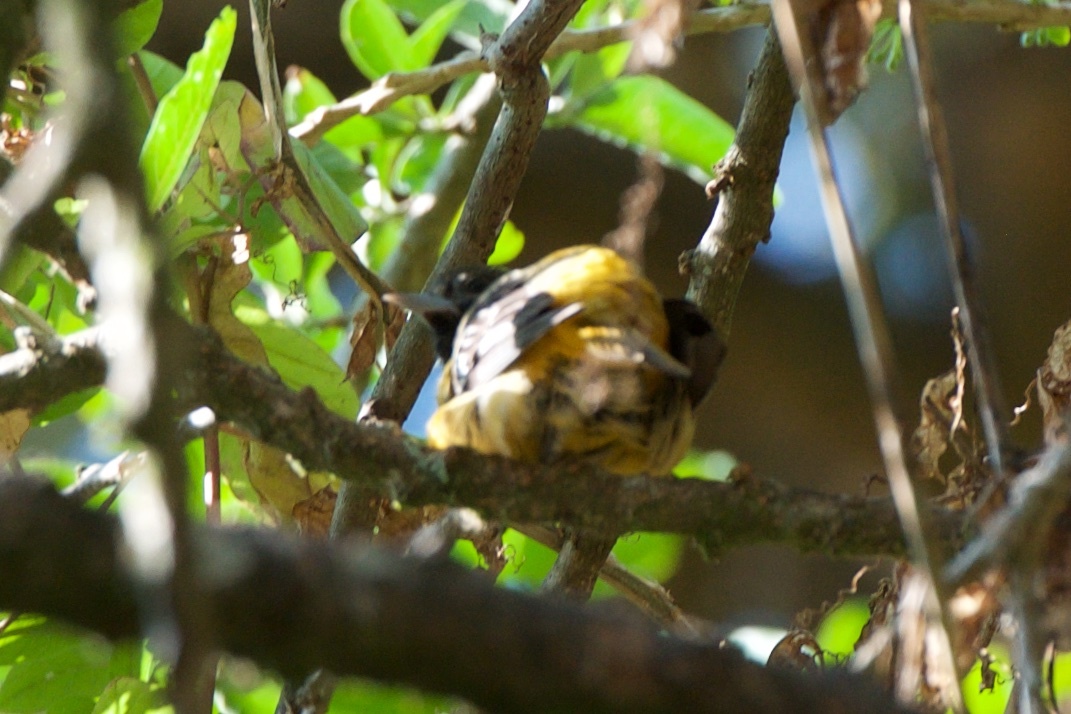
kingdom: Animalia
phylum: Chordata
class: Aves
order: Passeriformes
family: Icteridae
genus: Icterus
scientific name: Icterus galbula
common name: Baltimore oriole
